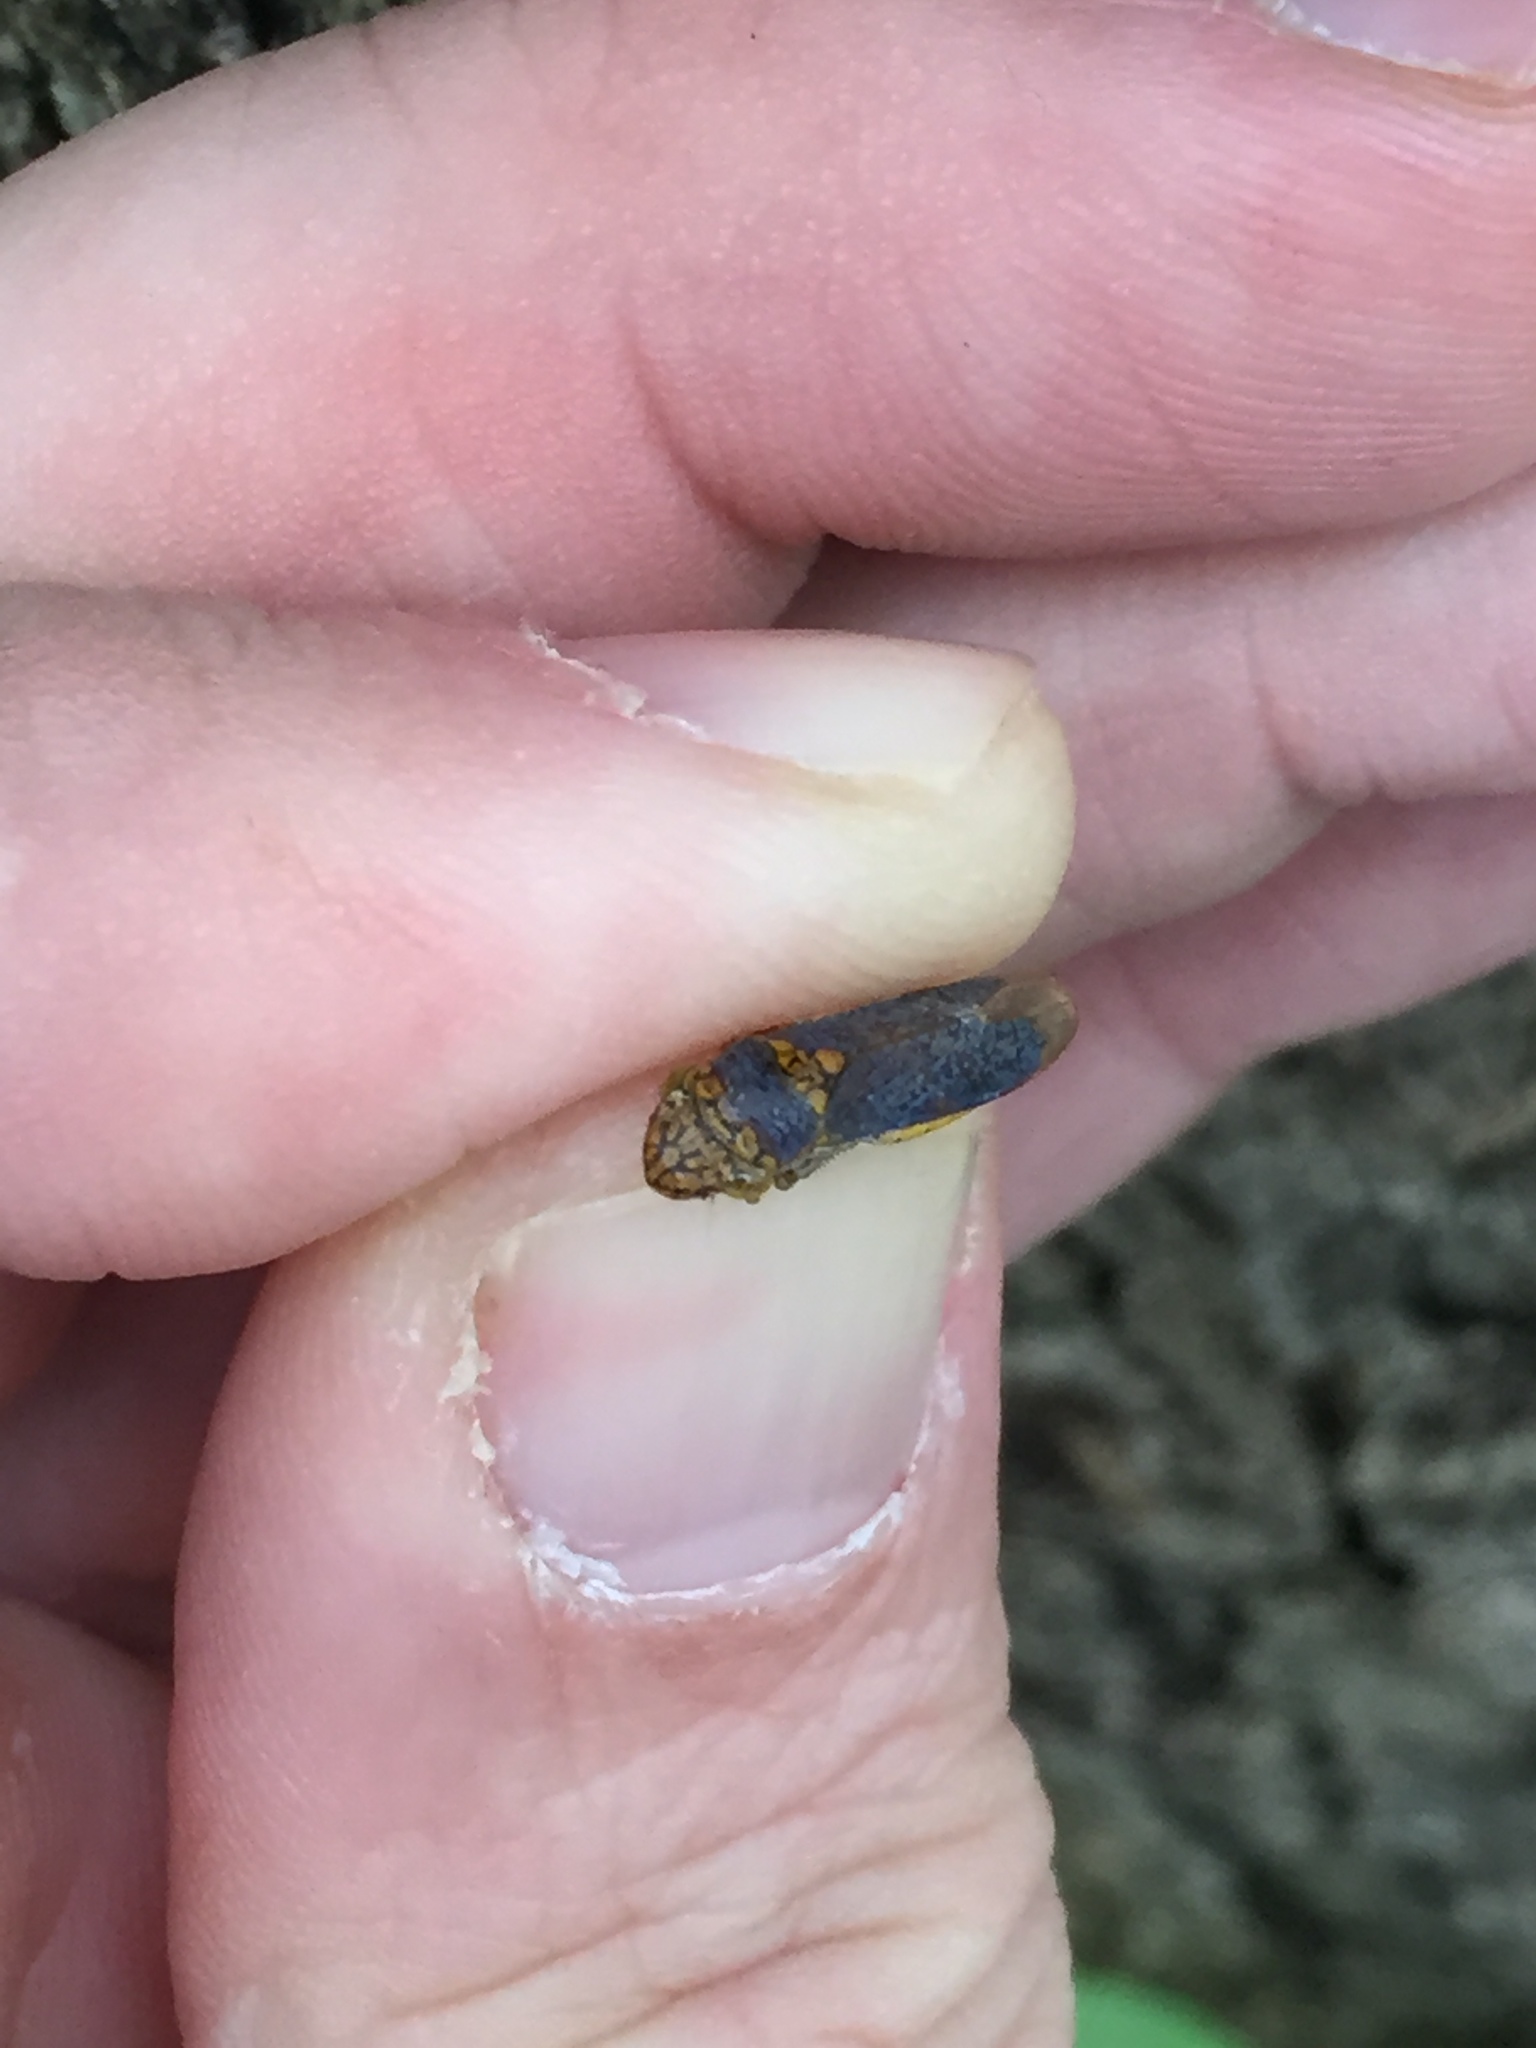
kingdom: Animalia
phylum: Arthropoda
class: Insecta
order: Hemiptera
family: Cicadellidae
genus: Oncometopia
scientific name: Oncometopia orbona
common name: Broad-headed sharpshooter
